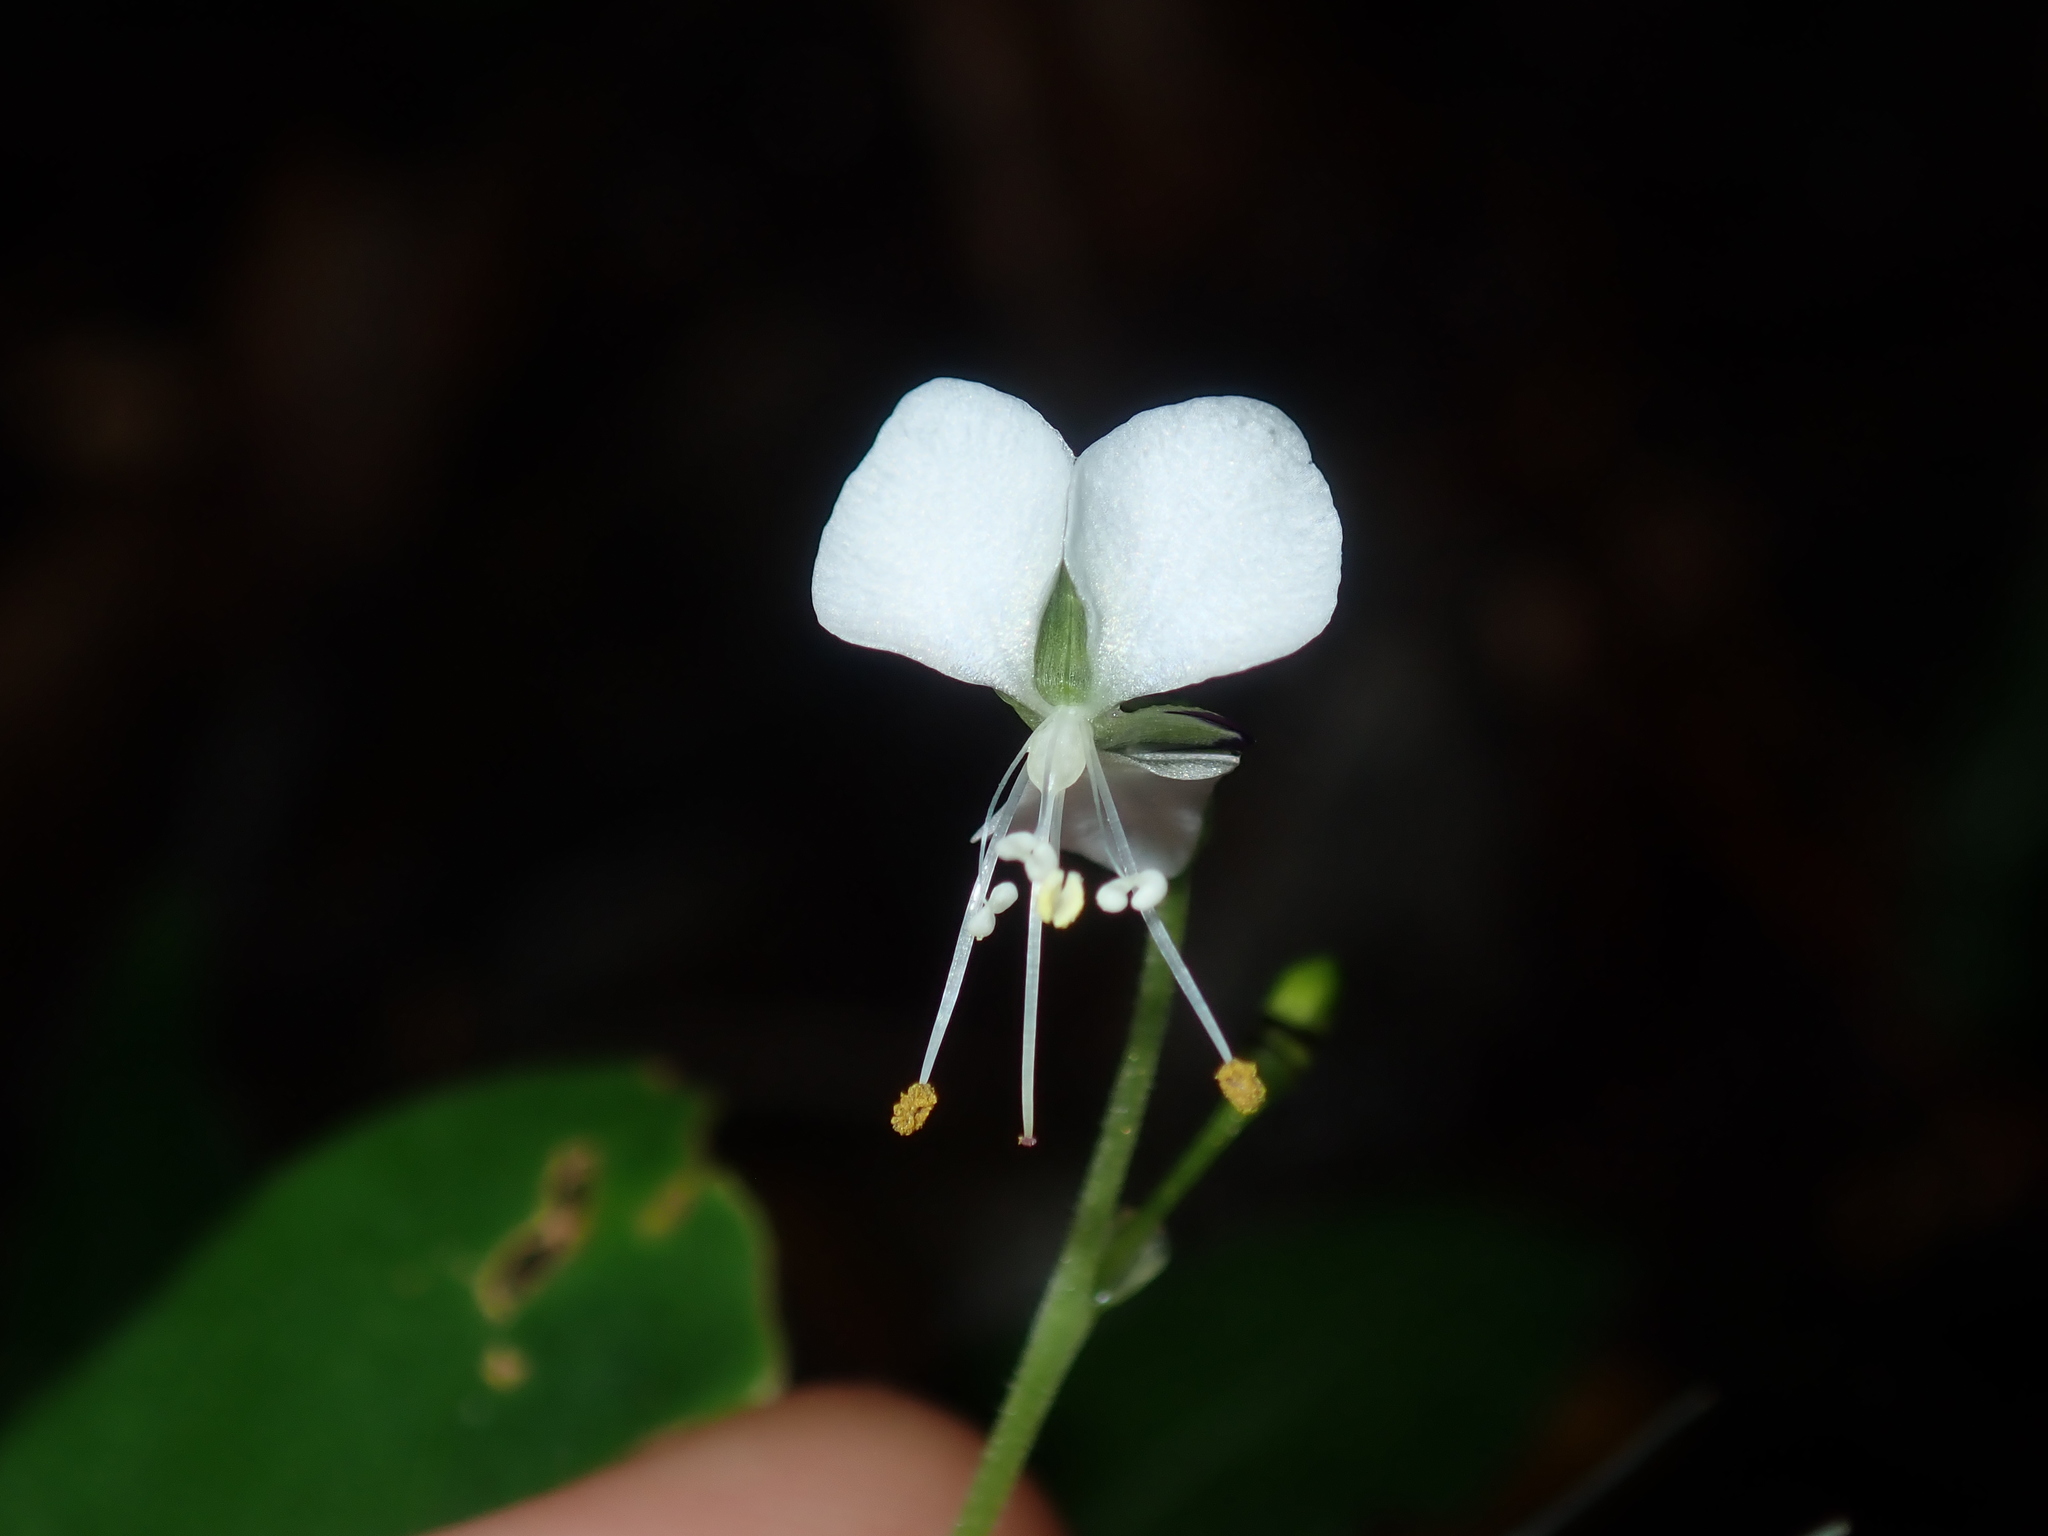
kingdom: Plantae
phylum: Tracheophyta
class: Liliopsida
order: Commelinales
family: Commelinaceae
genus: Aneilema
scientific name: Aneilema acuminatum
